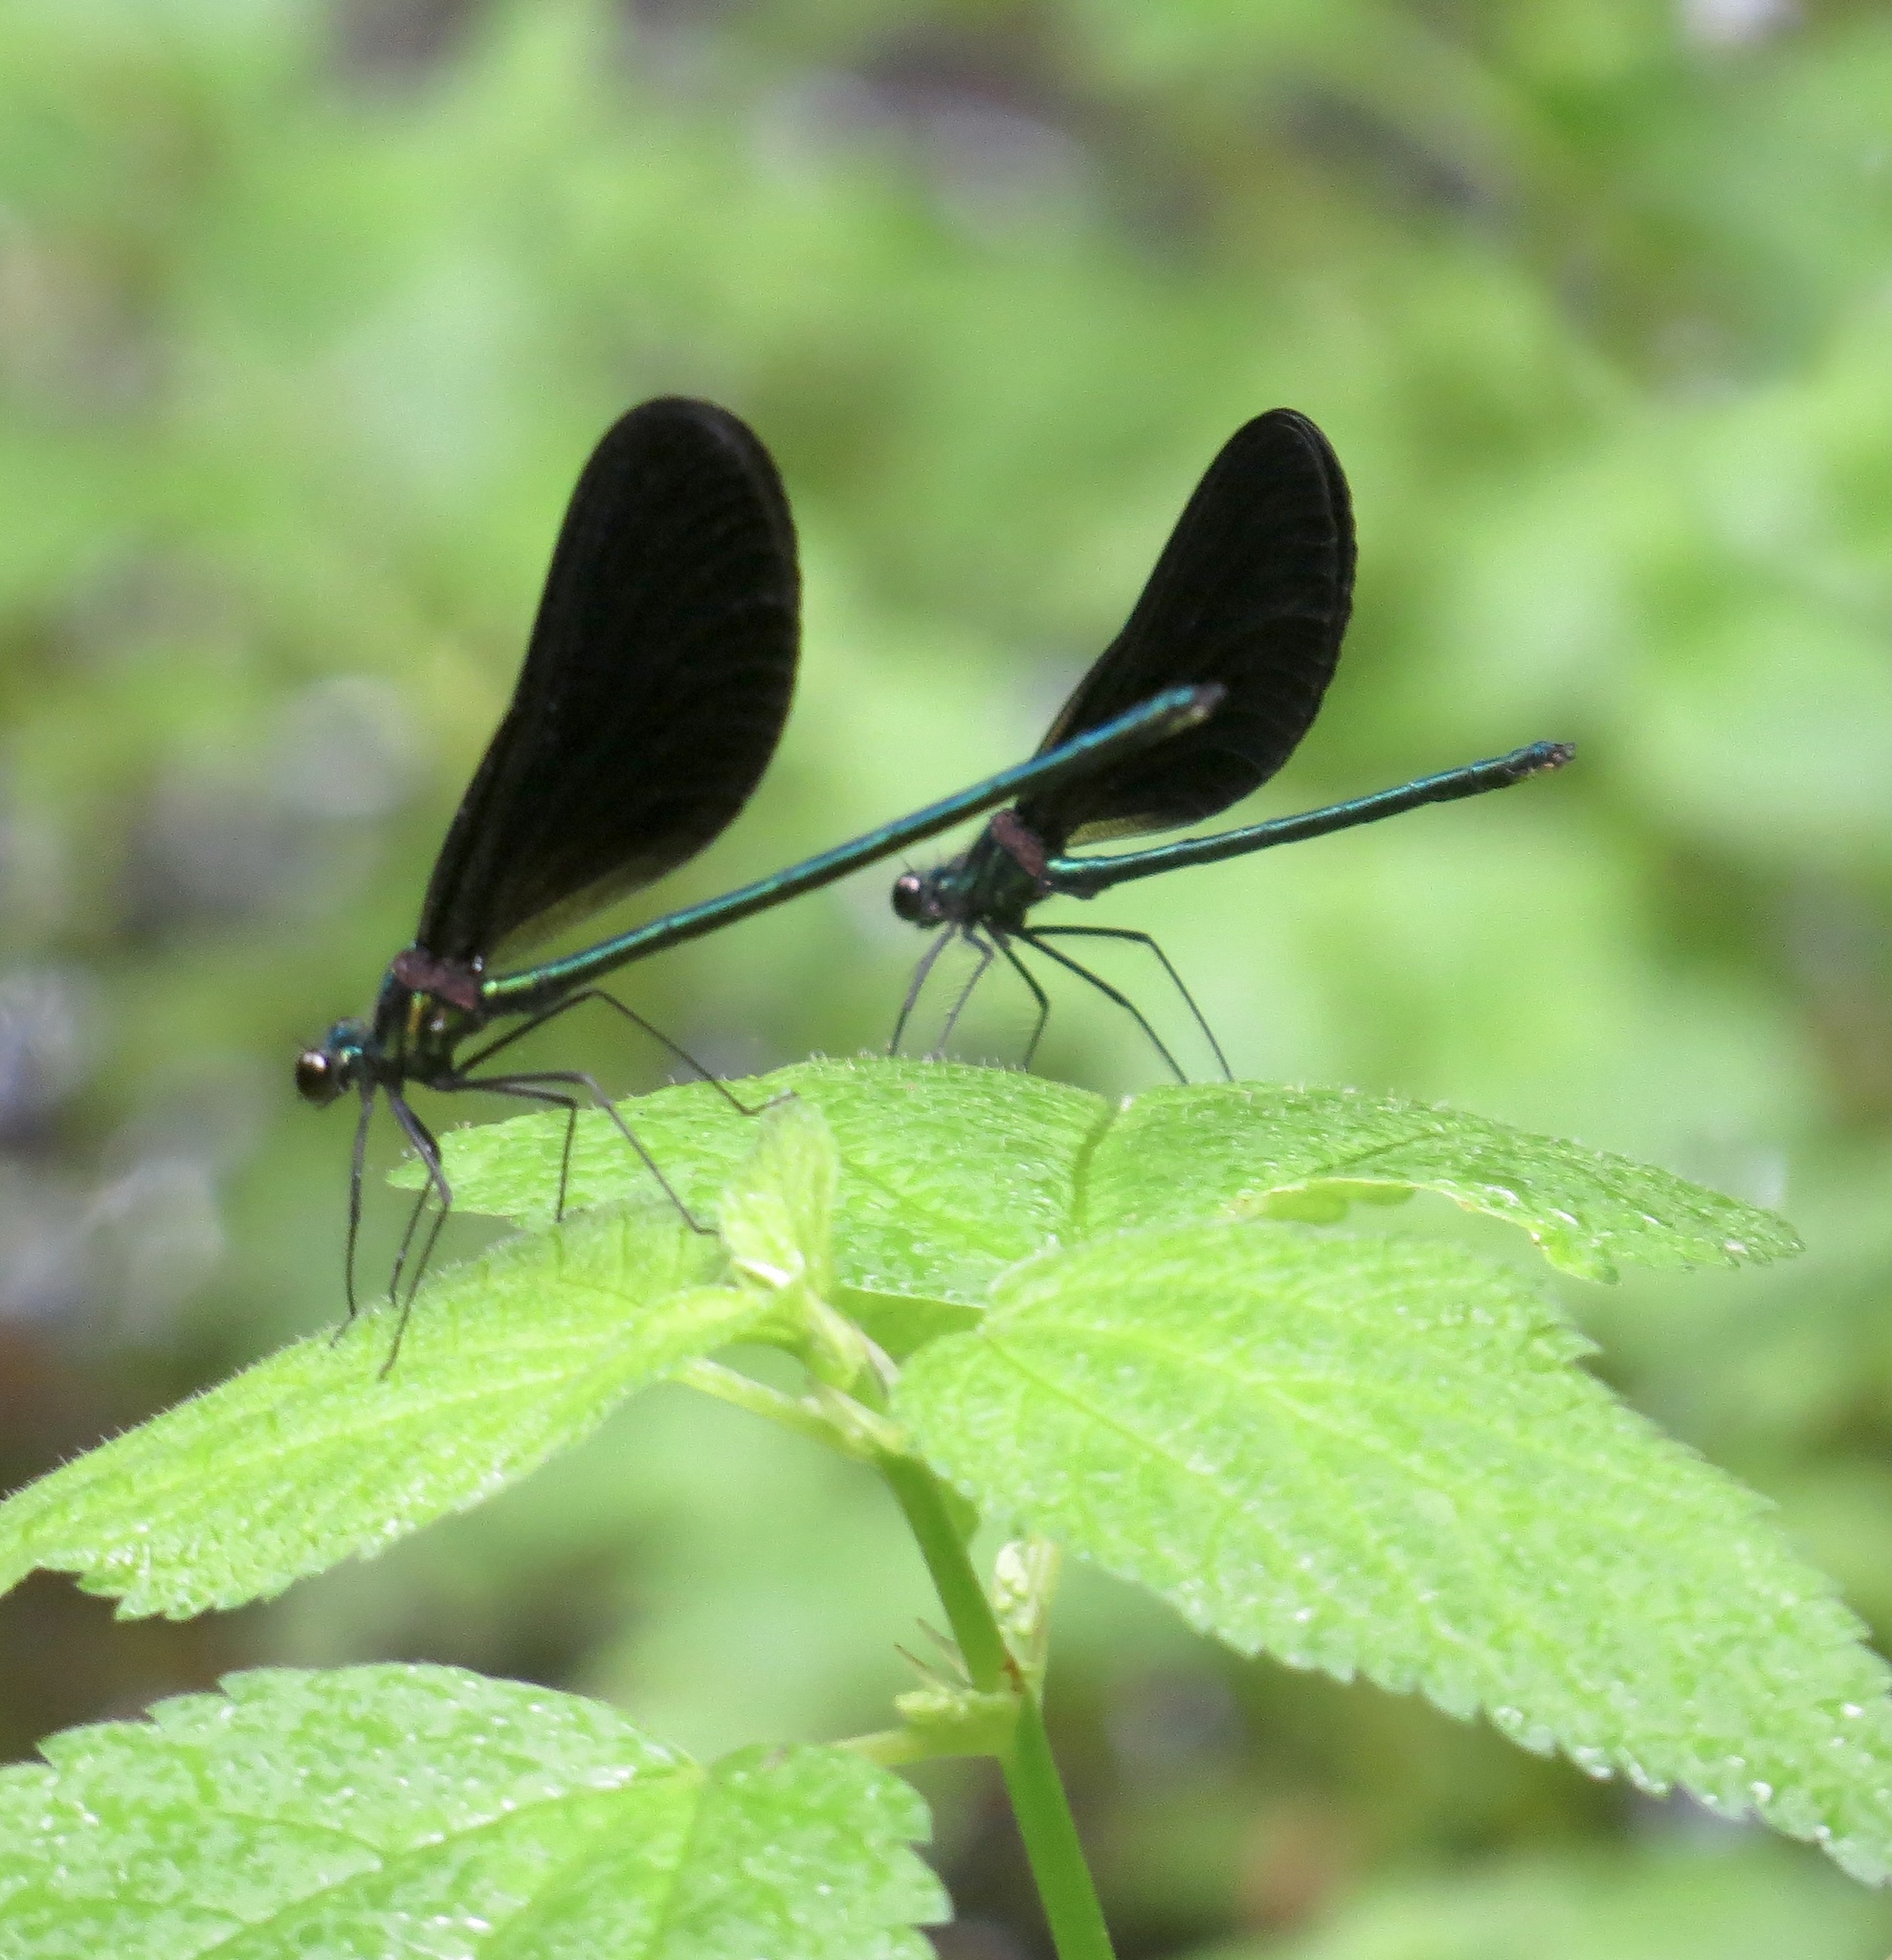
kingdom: Animalia
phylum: Arthropoda
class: Insecta
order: Odonata
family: Calopterygidae
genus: Calopteryx
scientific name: Calopteryx maculata
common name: Ebony jewelwing
